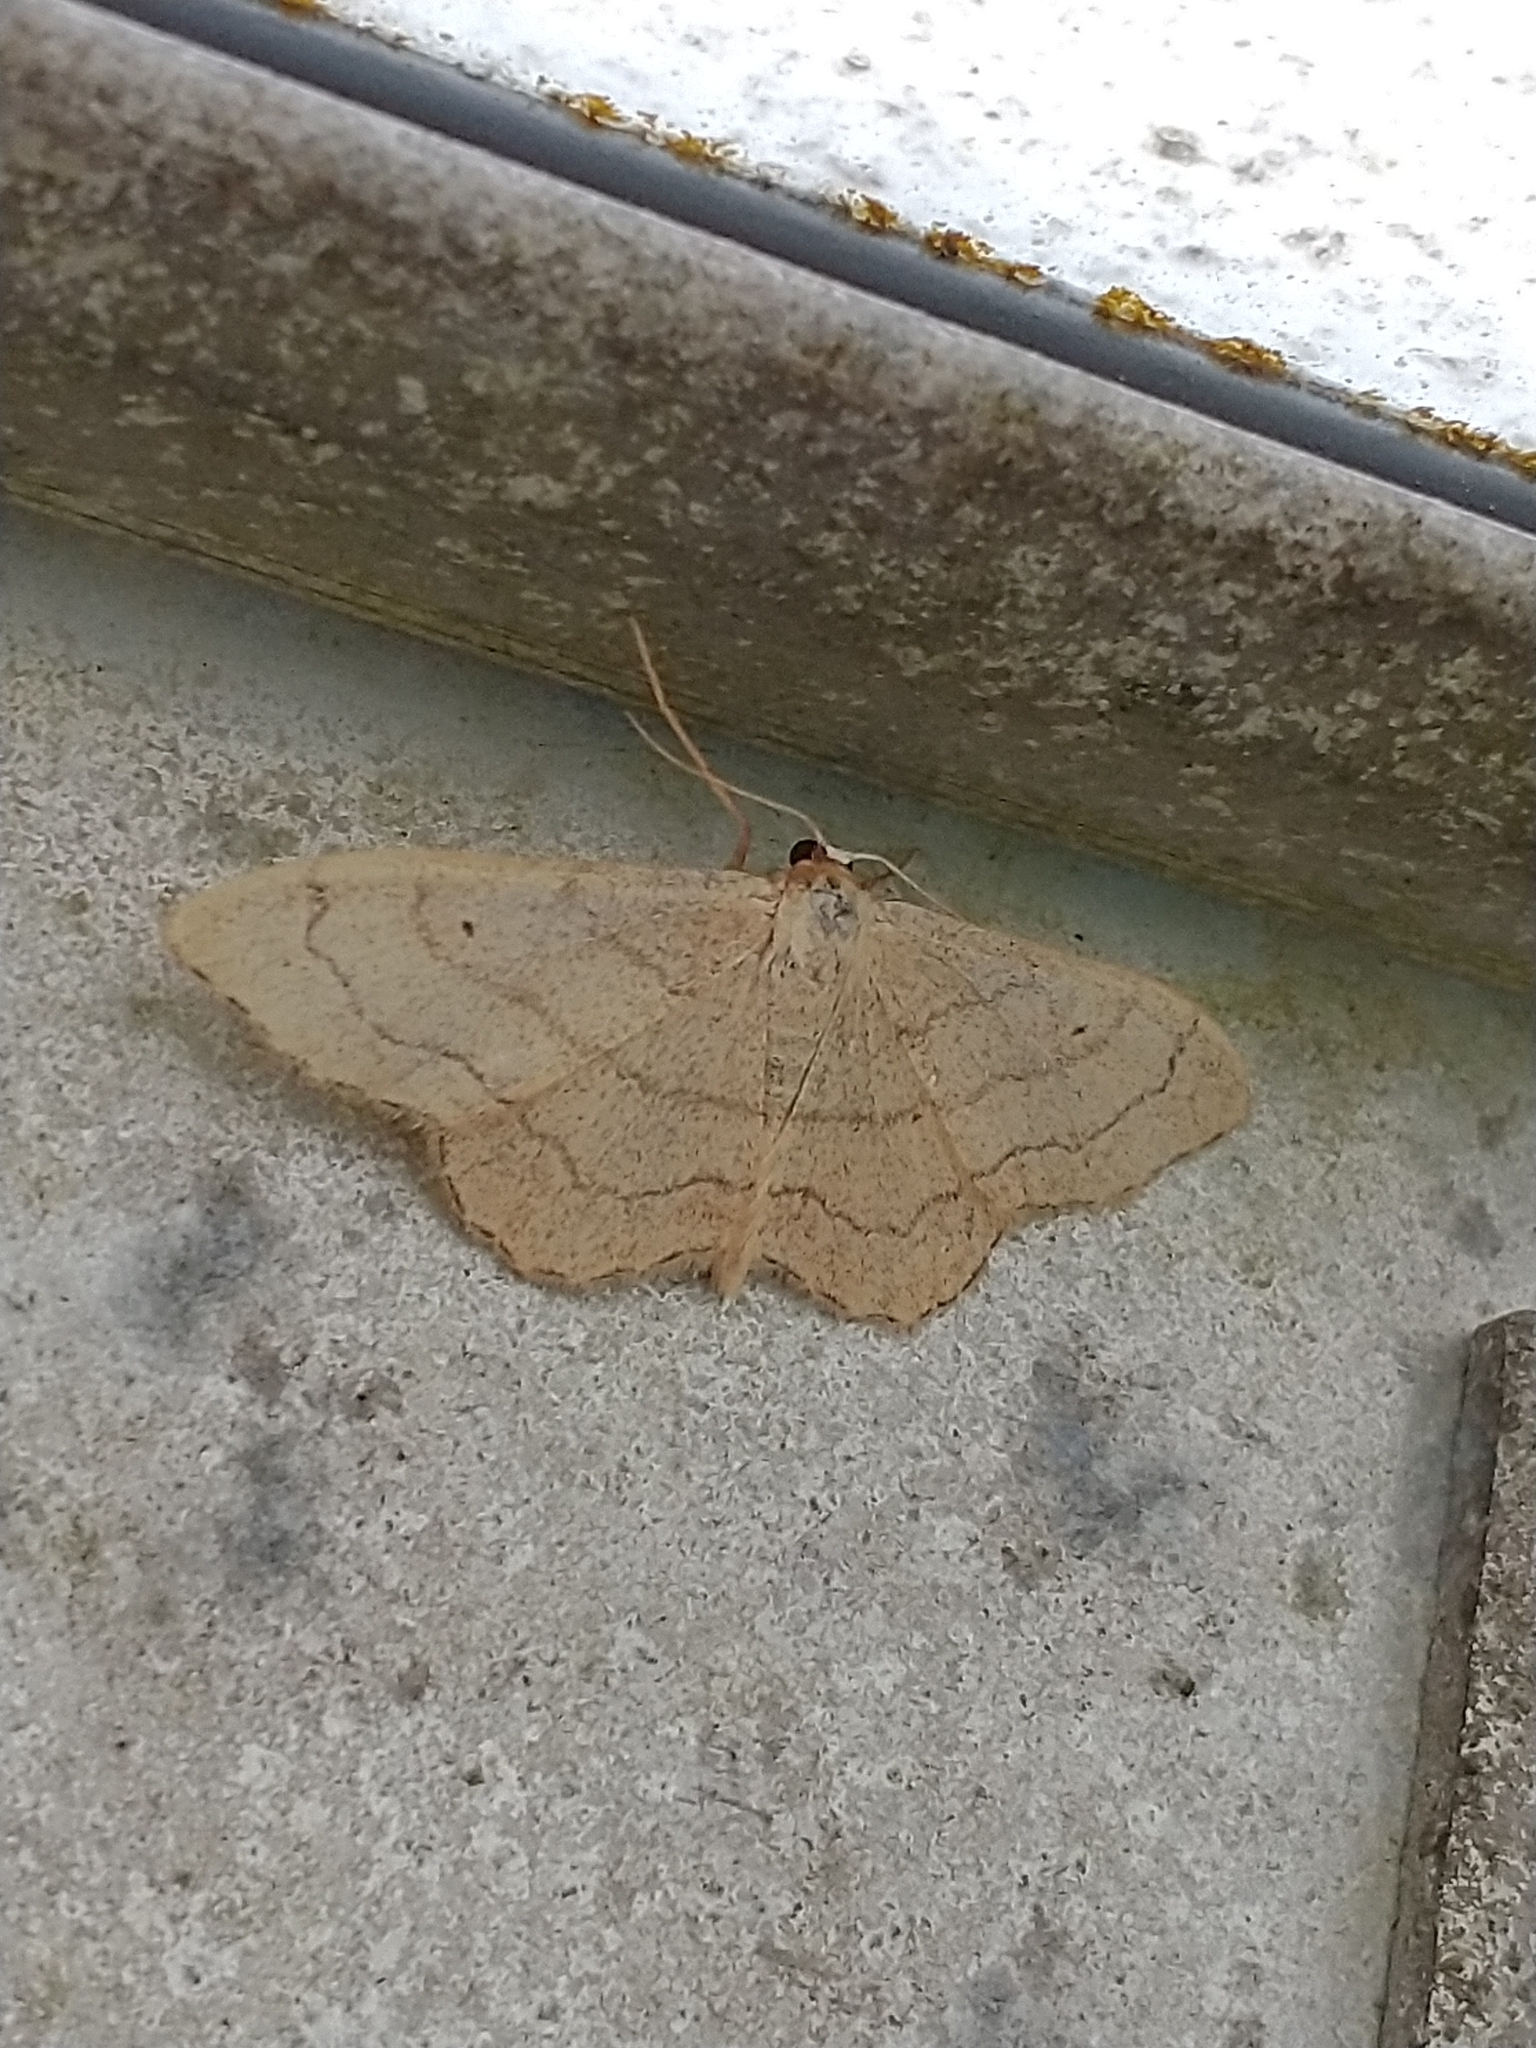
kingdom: Animalia
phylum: Arthropoda
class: Insecta
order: Lepidoptera
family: Geometridae
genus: Idaea
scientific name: Idaea aversata
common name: Riband wave
